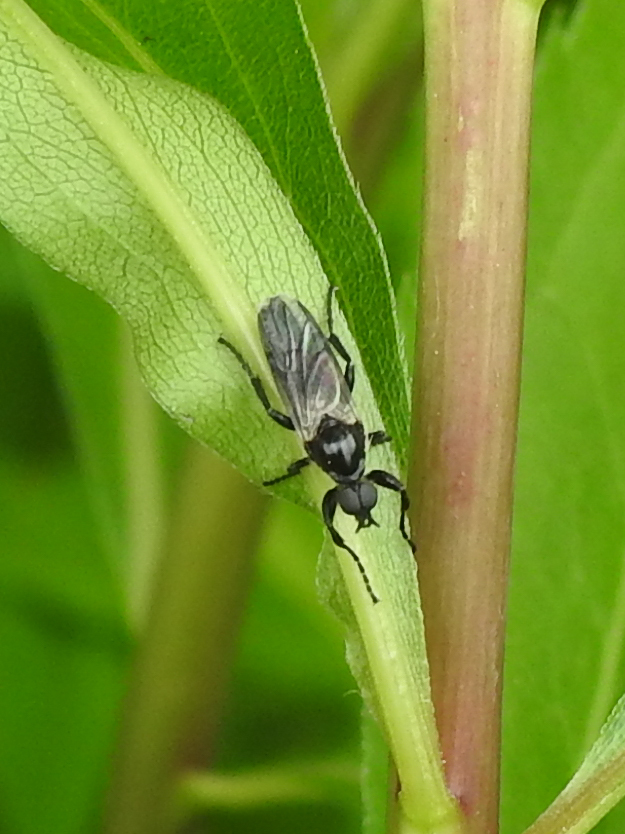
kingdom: Animalia
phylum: Arthropoda
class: Insecta
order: Diptera
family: Bibionidae
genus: Bibio
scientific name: Bibio albipennis
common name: White-winged march fly
